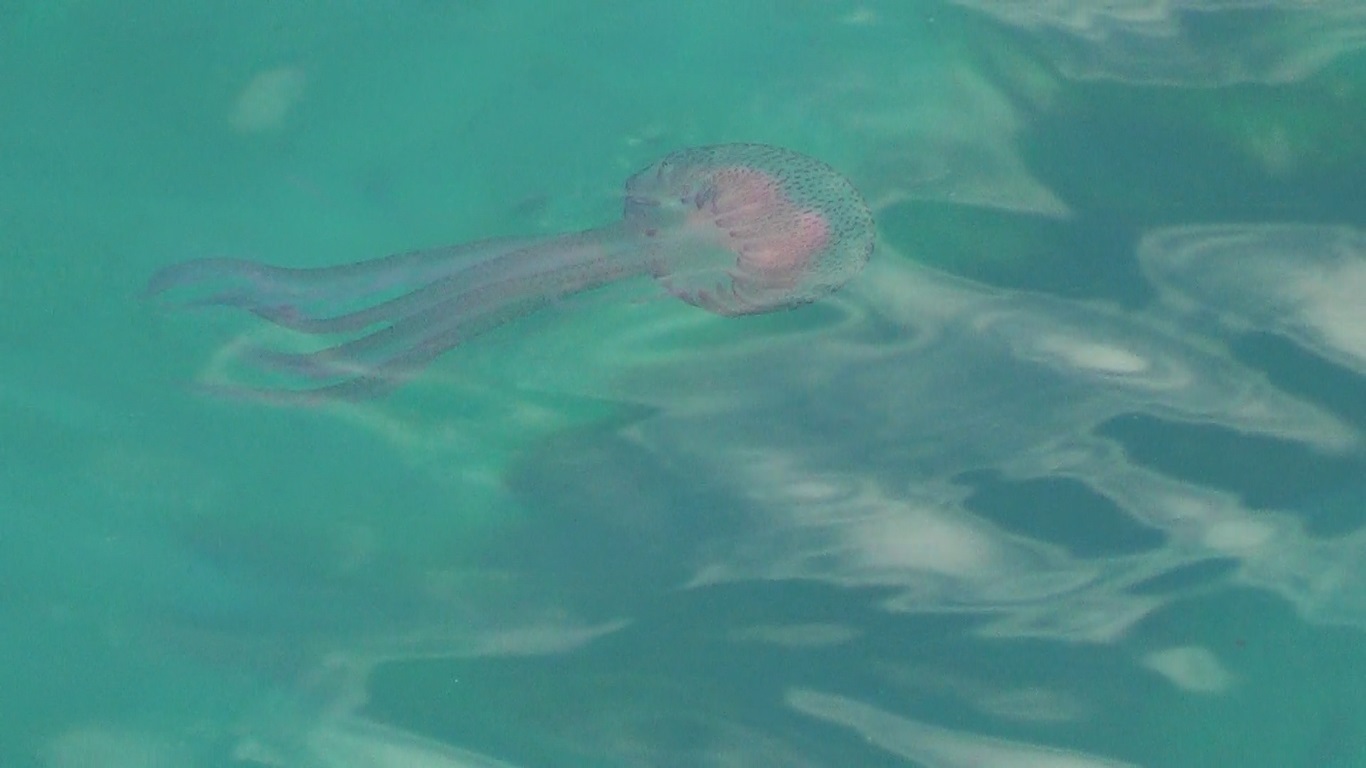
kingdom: Animalia
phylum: Cnidaria
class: Scyphozoa
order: Semaeostomeae
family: Pelagiidae
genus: Pelagia
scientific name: Pelagia noctiluca
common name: Mauve stinger
